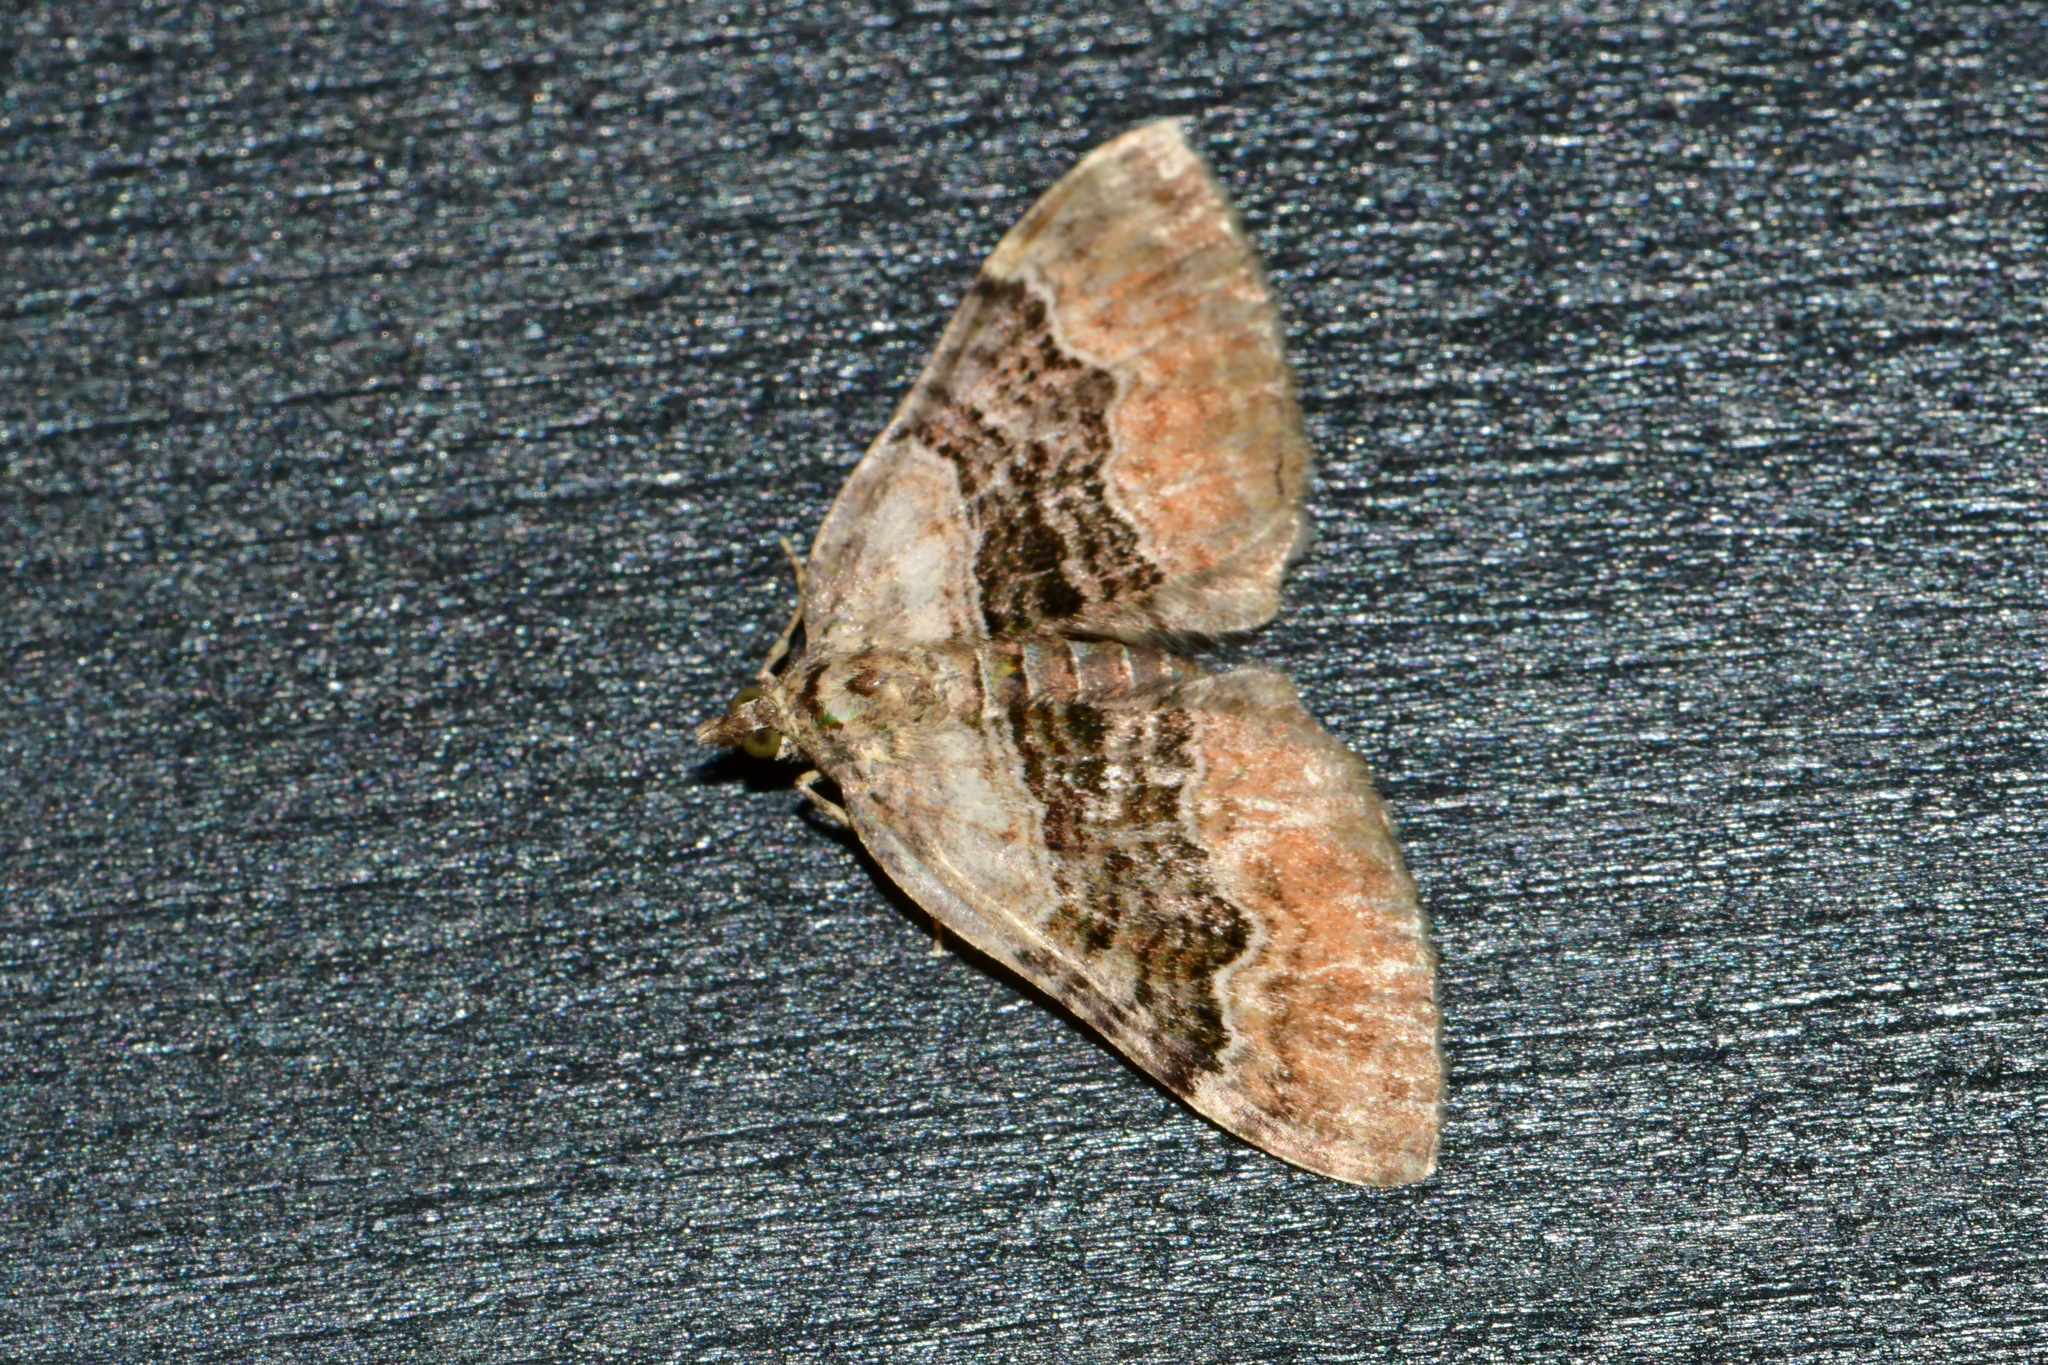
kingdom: Animalia
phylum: Arthropoda
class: Insecta
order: Lepidoptera
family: Geometridae
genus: Xanthorhoe
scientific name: Xanthorhoe quadrifasiata
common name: Large twin-spot carpet
